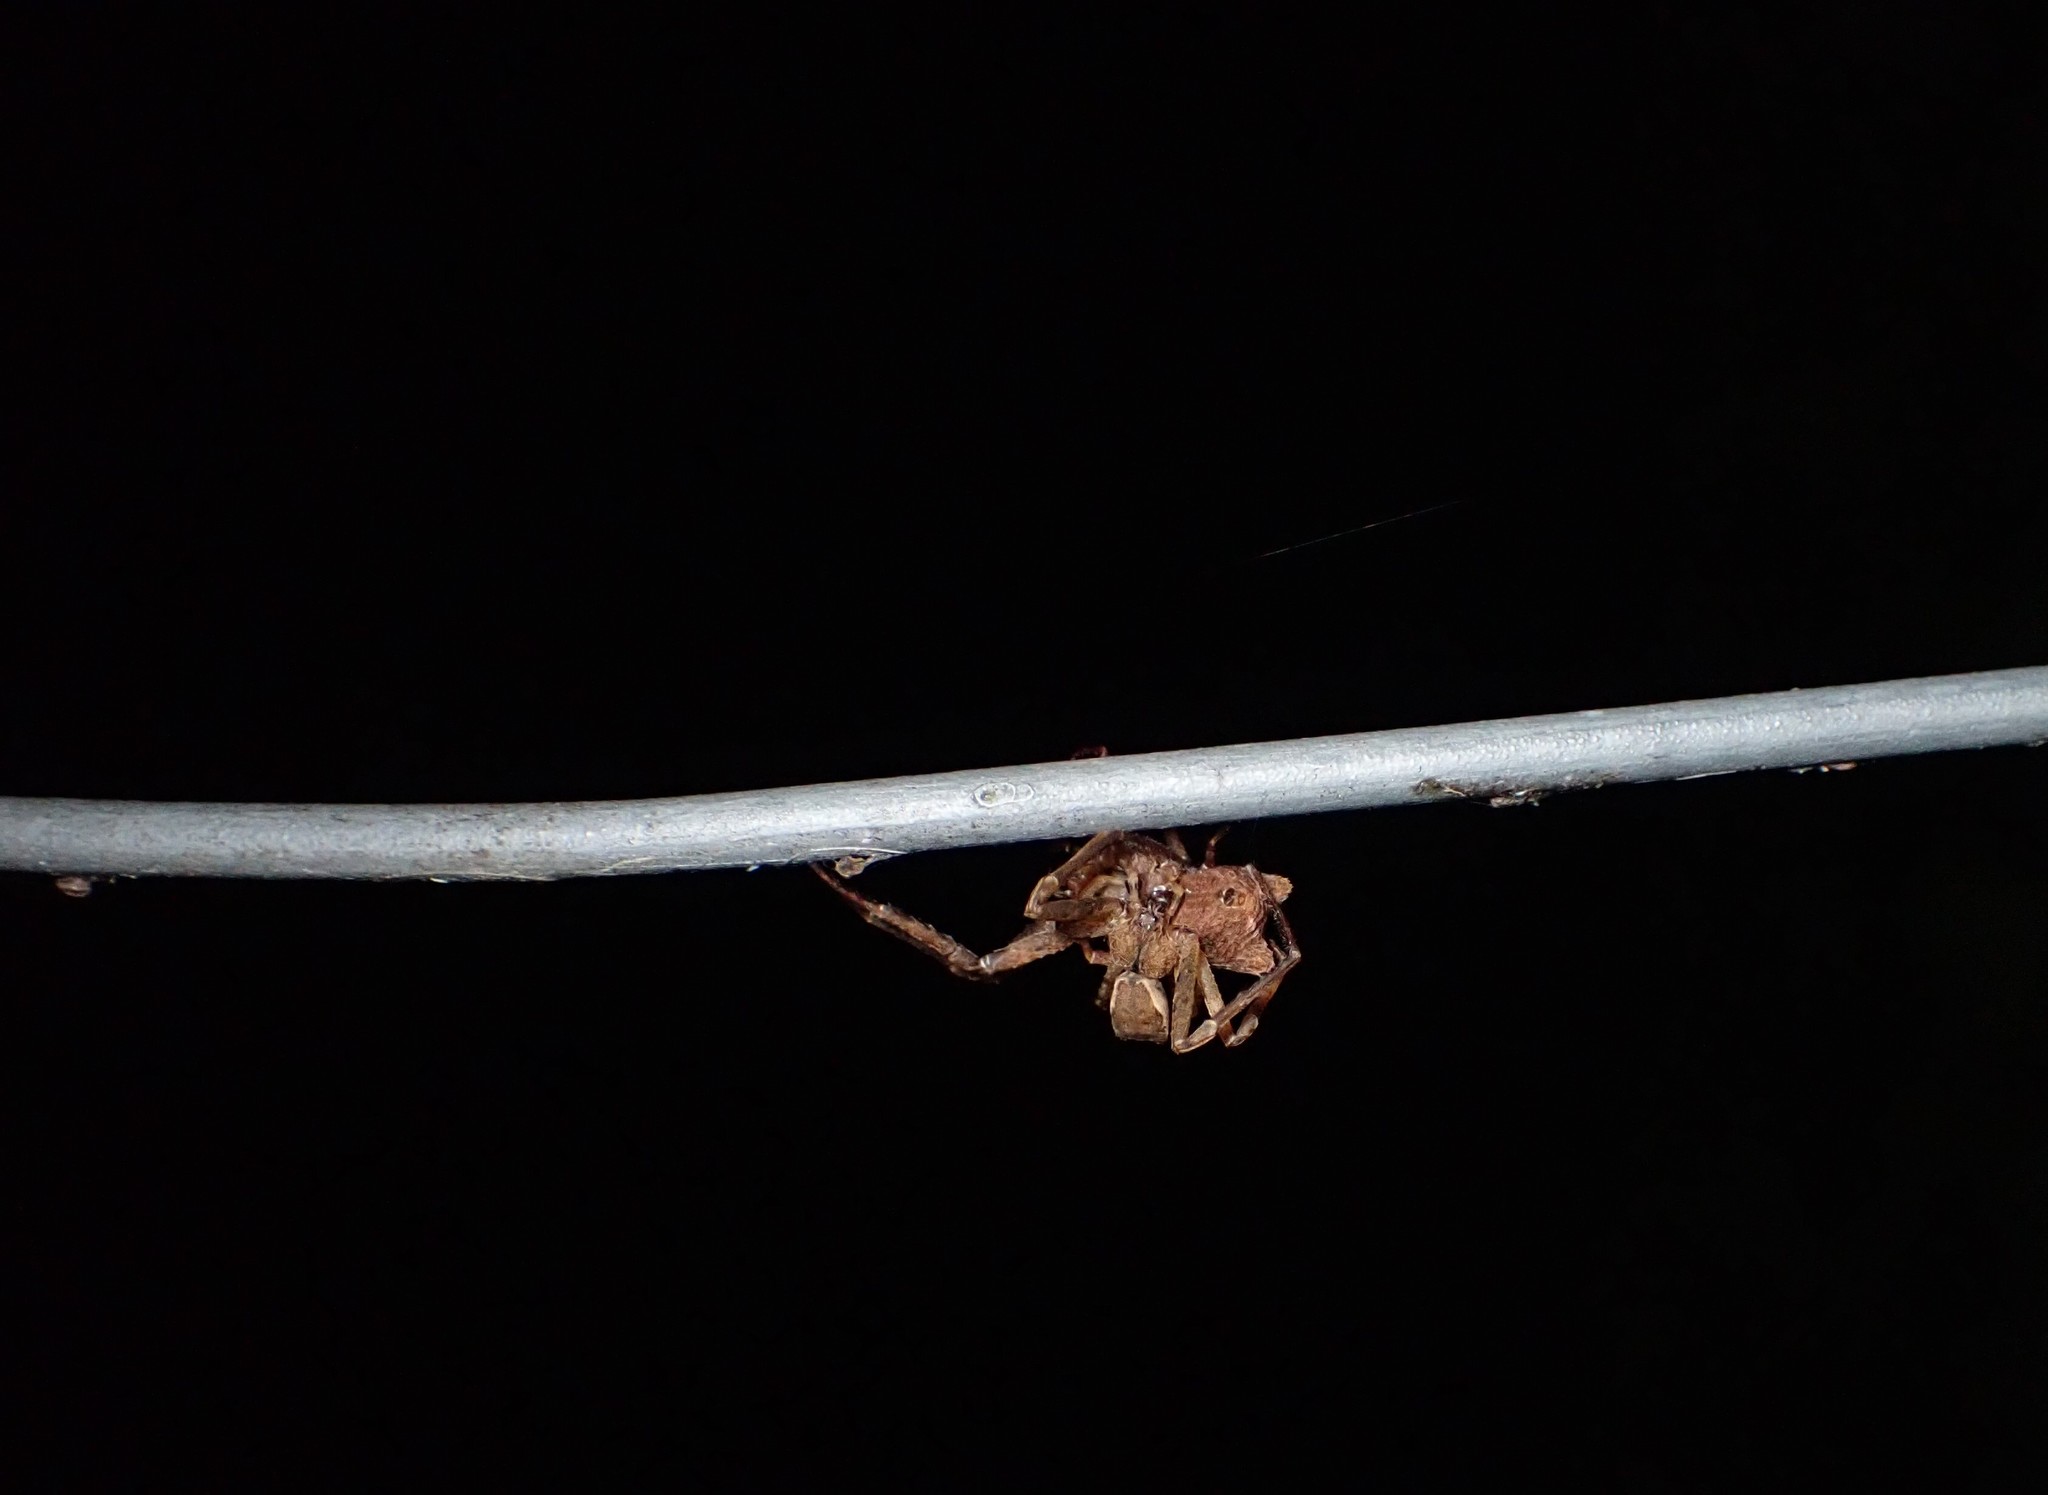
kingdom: Animalia
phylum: Arthropoda
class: Arachnida
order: Araneae
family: Thomisidae
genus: Sidymella
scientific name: Sidymella angularis
